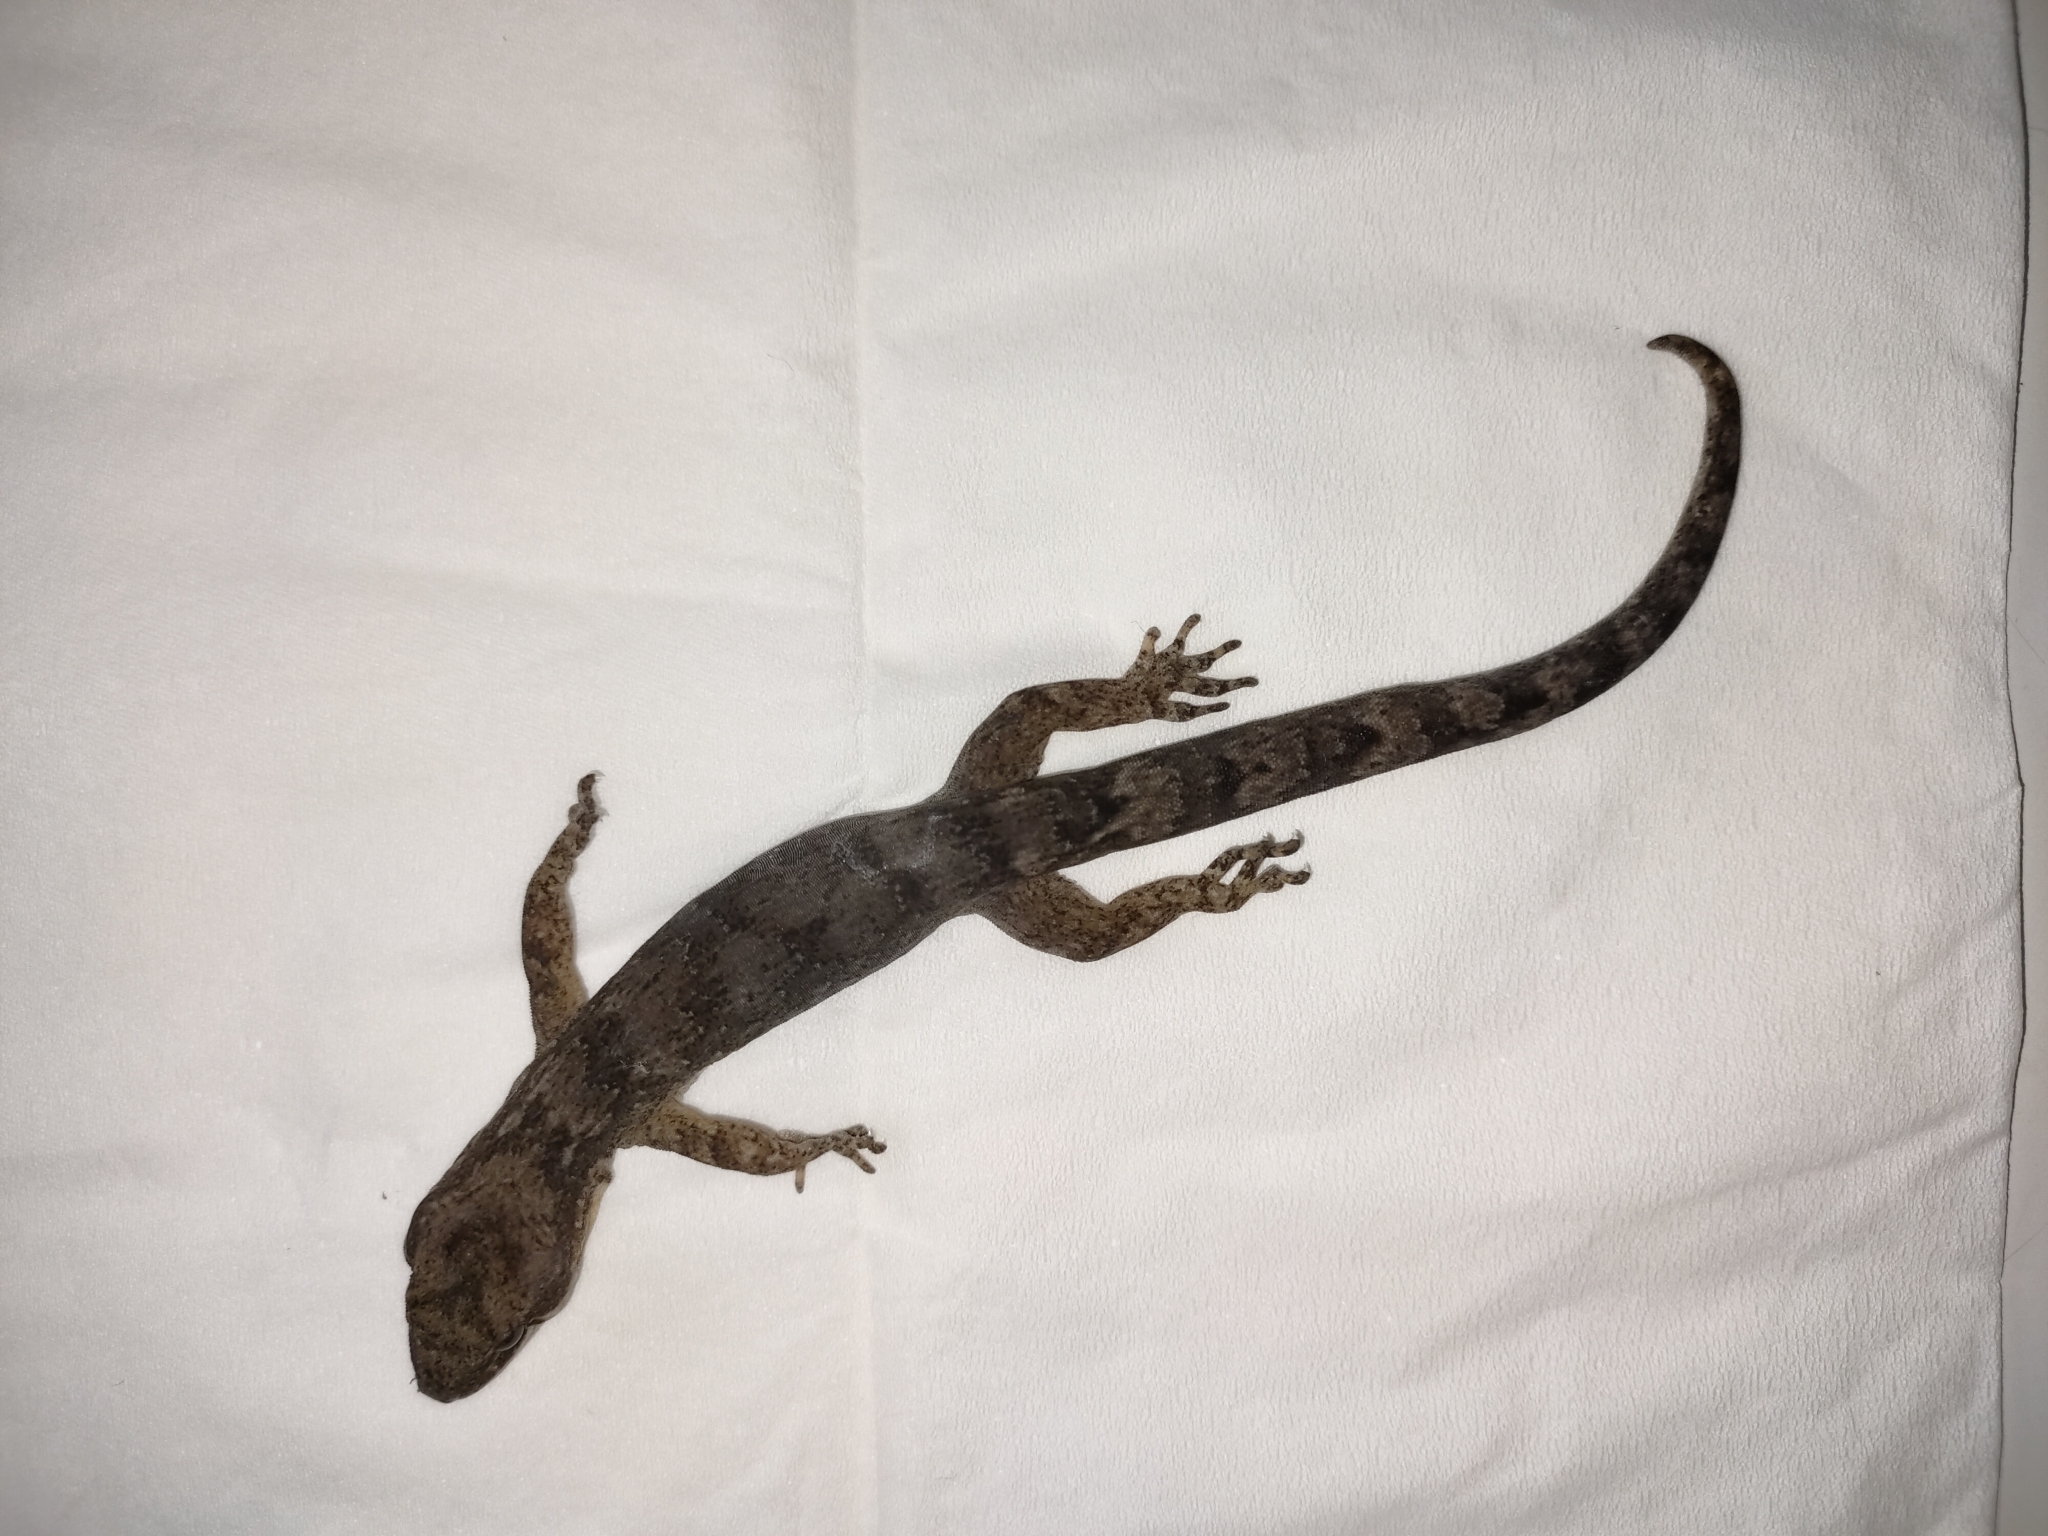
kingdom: Animalia
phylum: Chordata
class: Squamata
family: Diplodactylidae
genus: Dactylocnemis
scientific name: Dactylocnemis pacificus
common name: Pacific gecko
